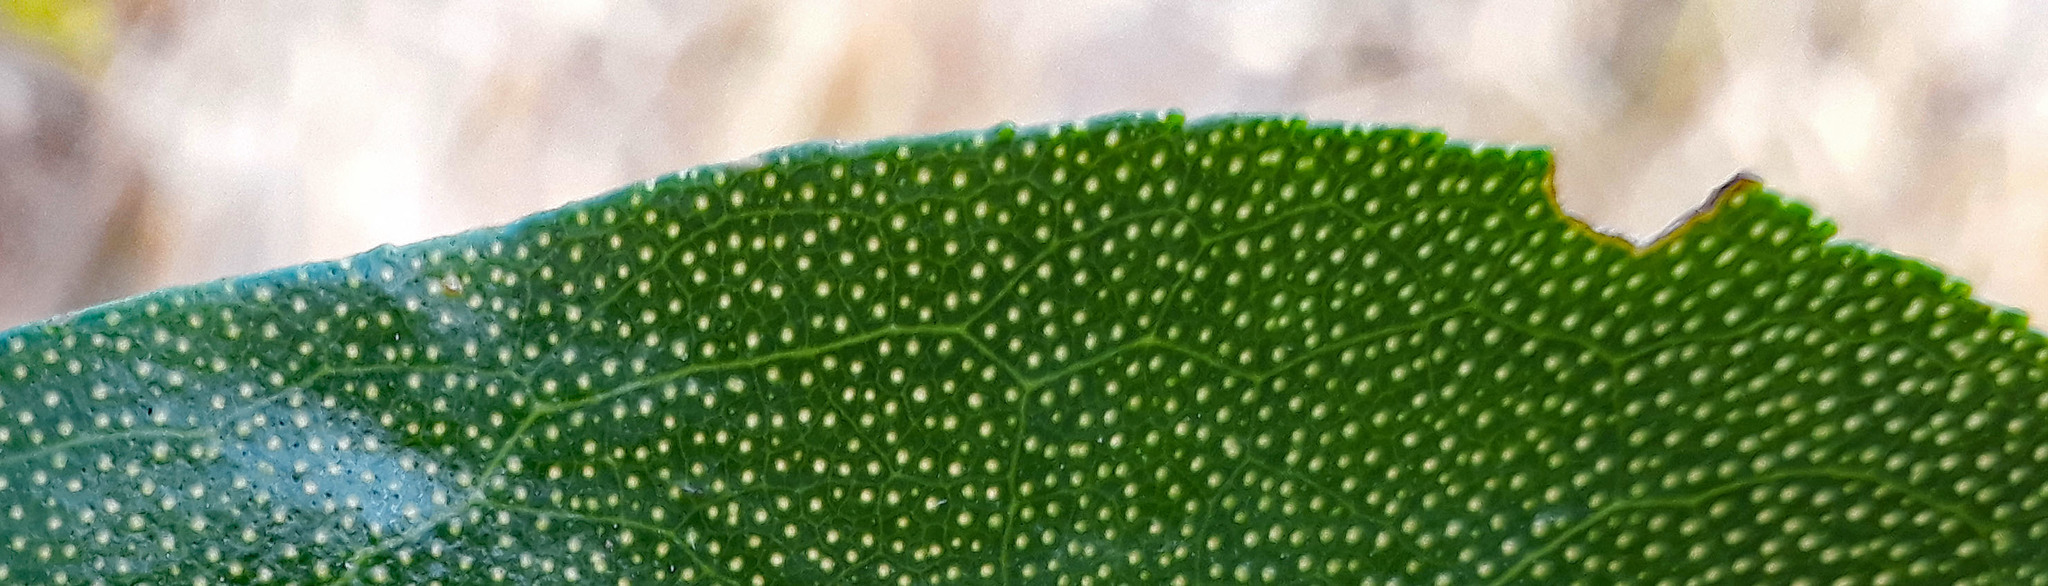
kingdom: Plantae
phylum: Tracheophyta
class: Magnoliopsida
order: Lamiales
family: Scrophulariaceae
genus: Myoporum
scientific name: Myoporum semotum
